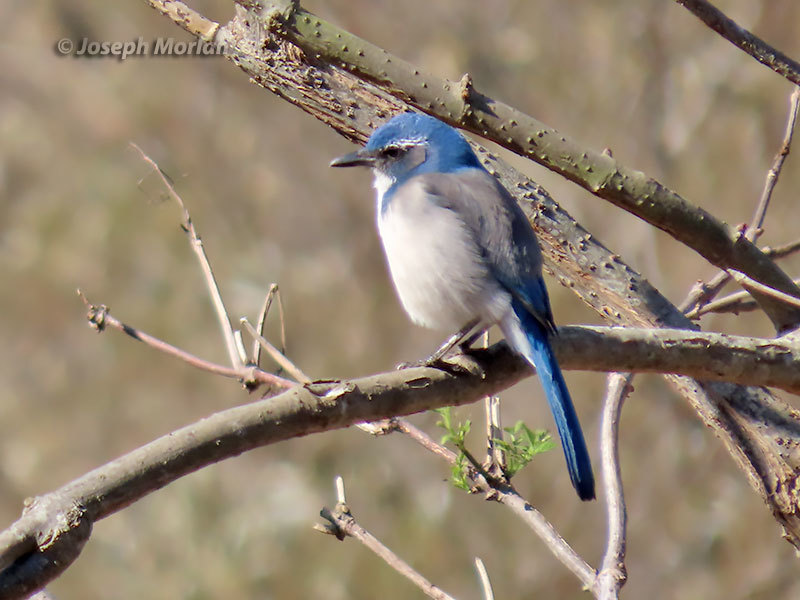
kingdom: Animalia
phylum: Chordata
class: Aves
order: Passeriformes
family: Corvidae
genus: Aphelocoma
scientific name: Aphelocoma californica
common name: California scrub-jay
